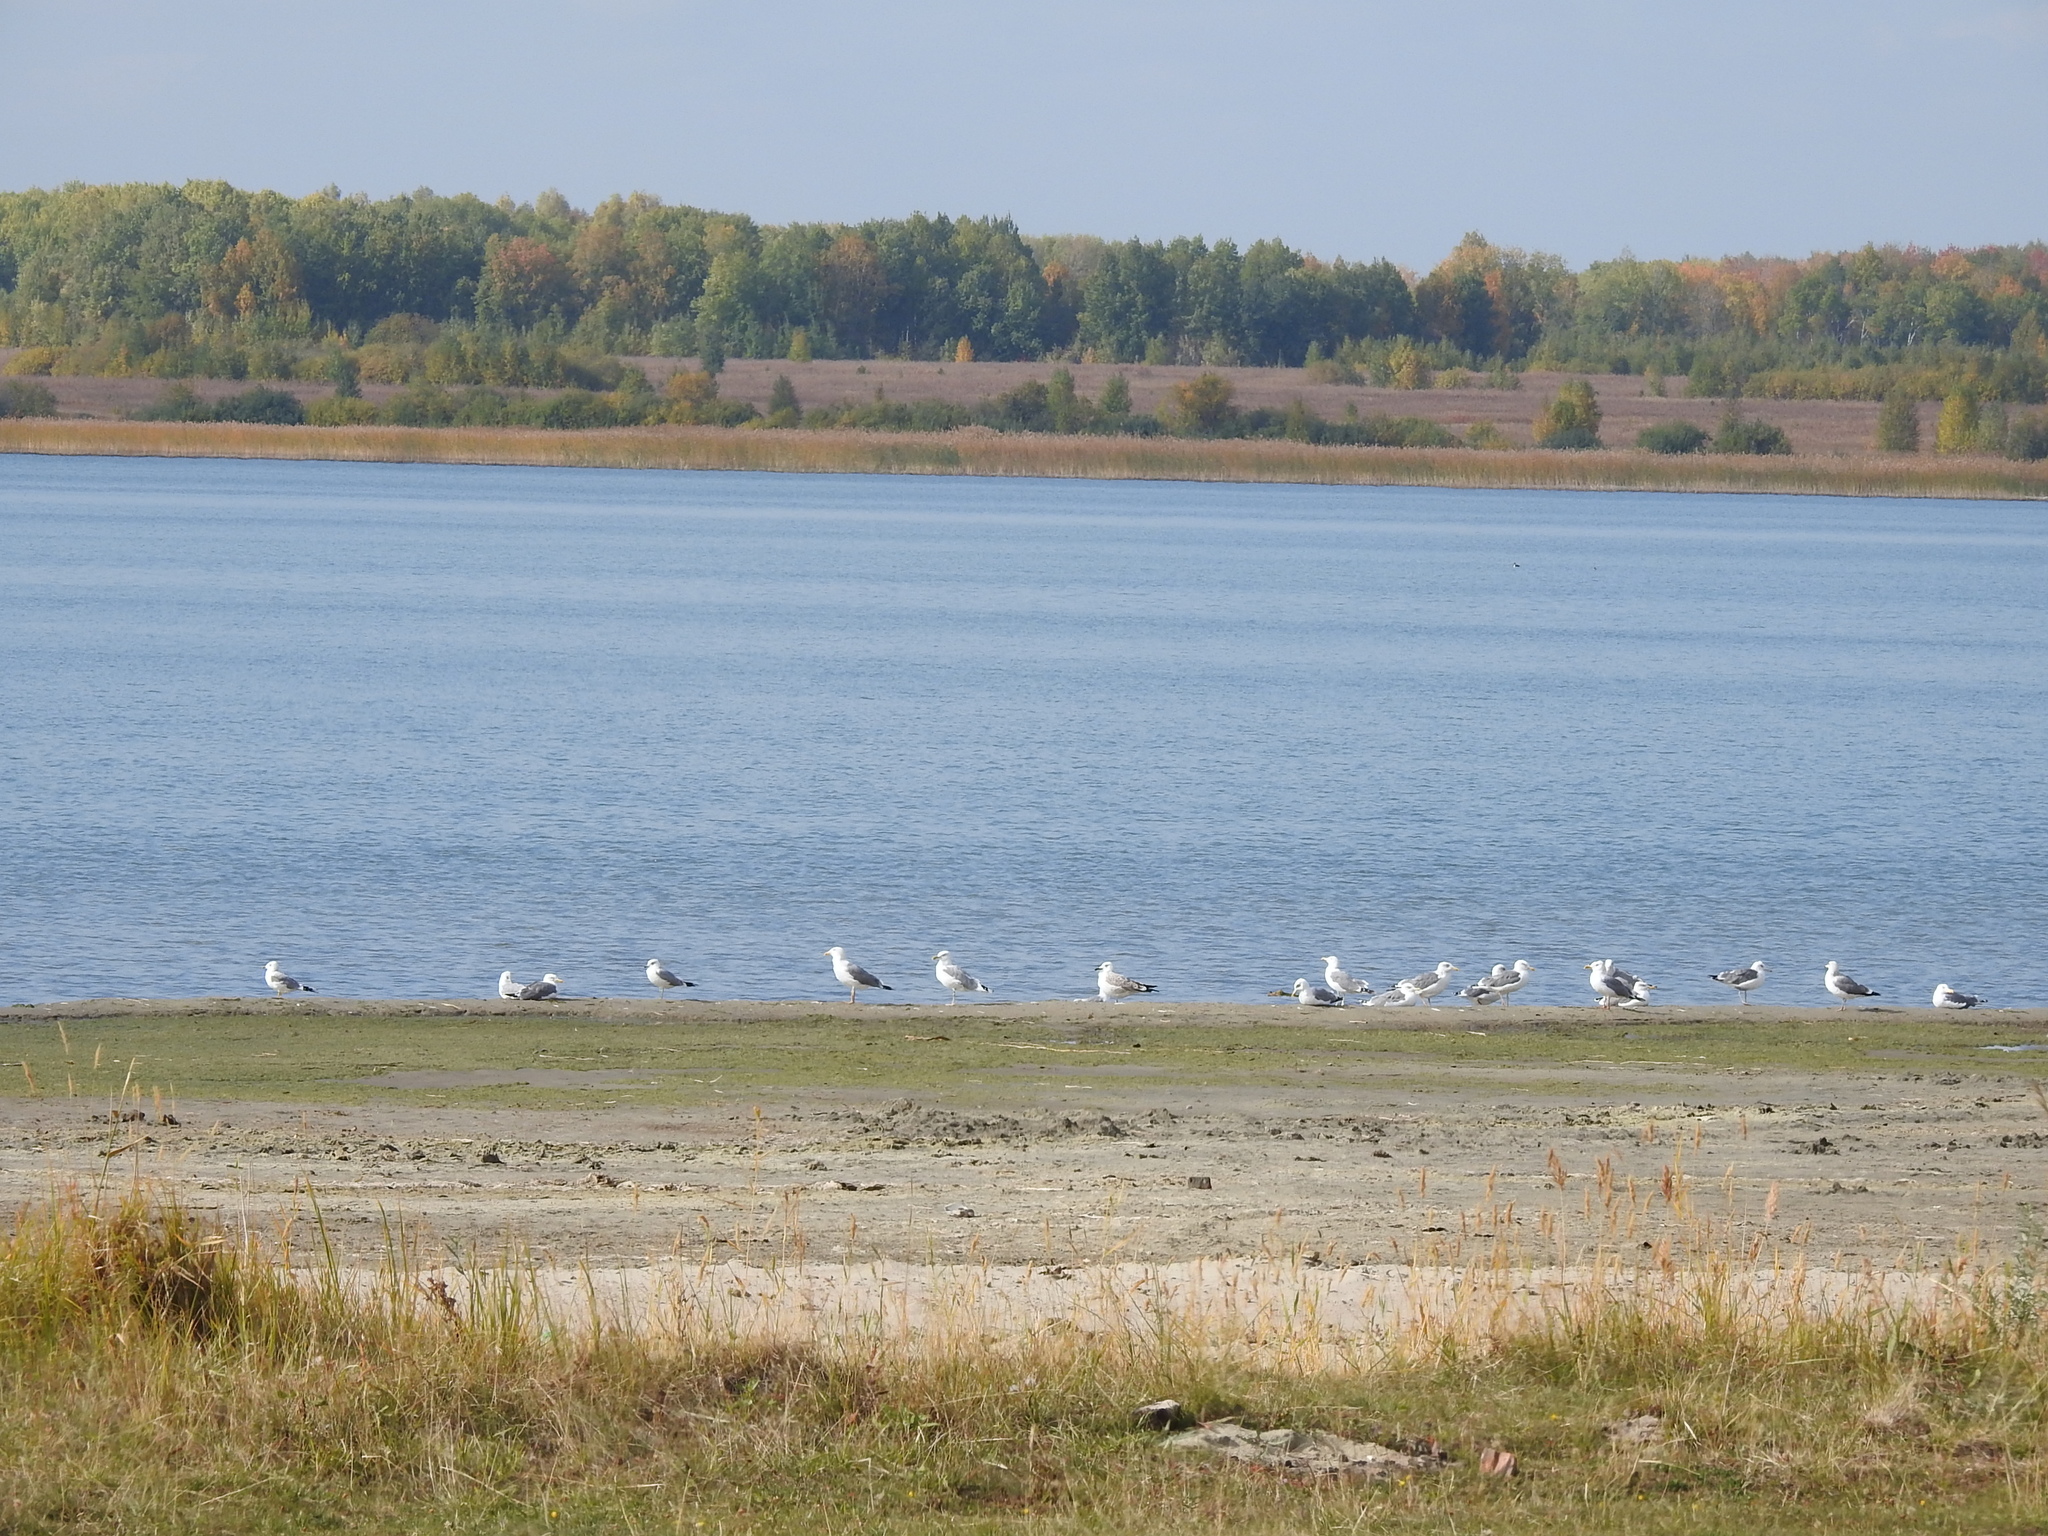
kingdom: Animalia
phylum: Chordata
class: Aves
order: Charadriiformes
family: Laridae
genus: Larus
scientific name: Larus fuscus
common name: Lesser black-backed gull
